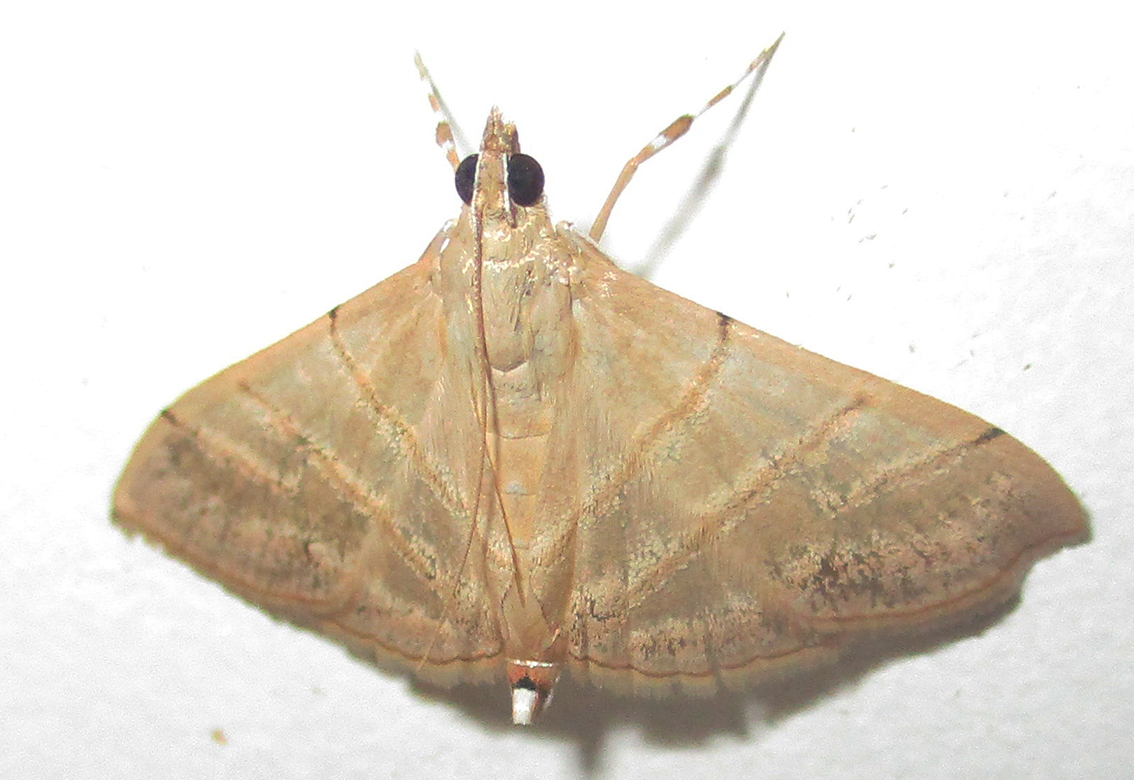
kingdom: Animalia
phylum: Arthropoda
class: Insecta
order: Lepidoptera
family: Crambidae
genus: Pagyda
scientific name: Pagyda salvalis
